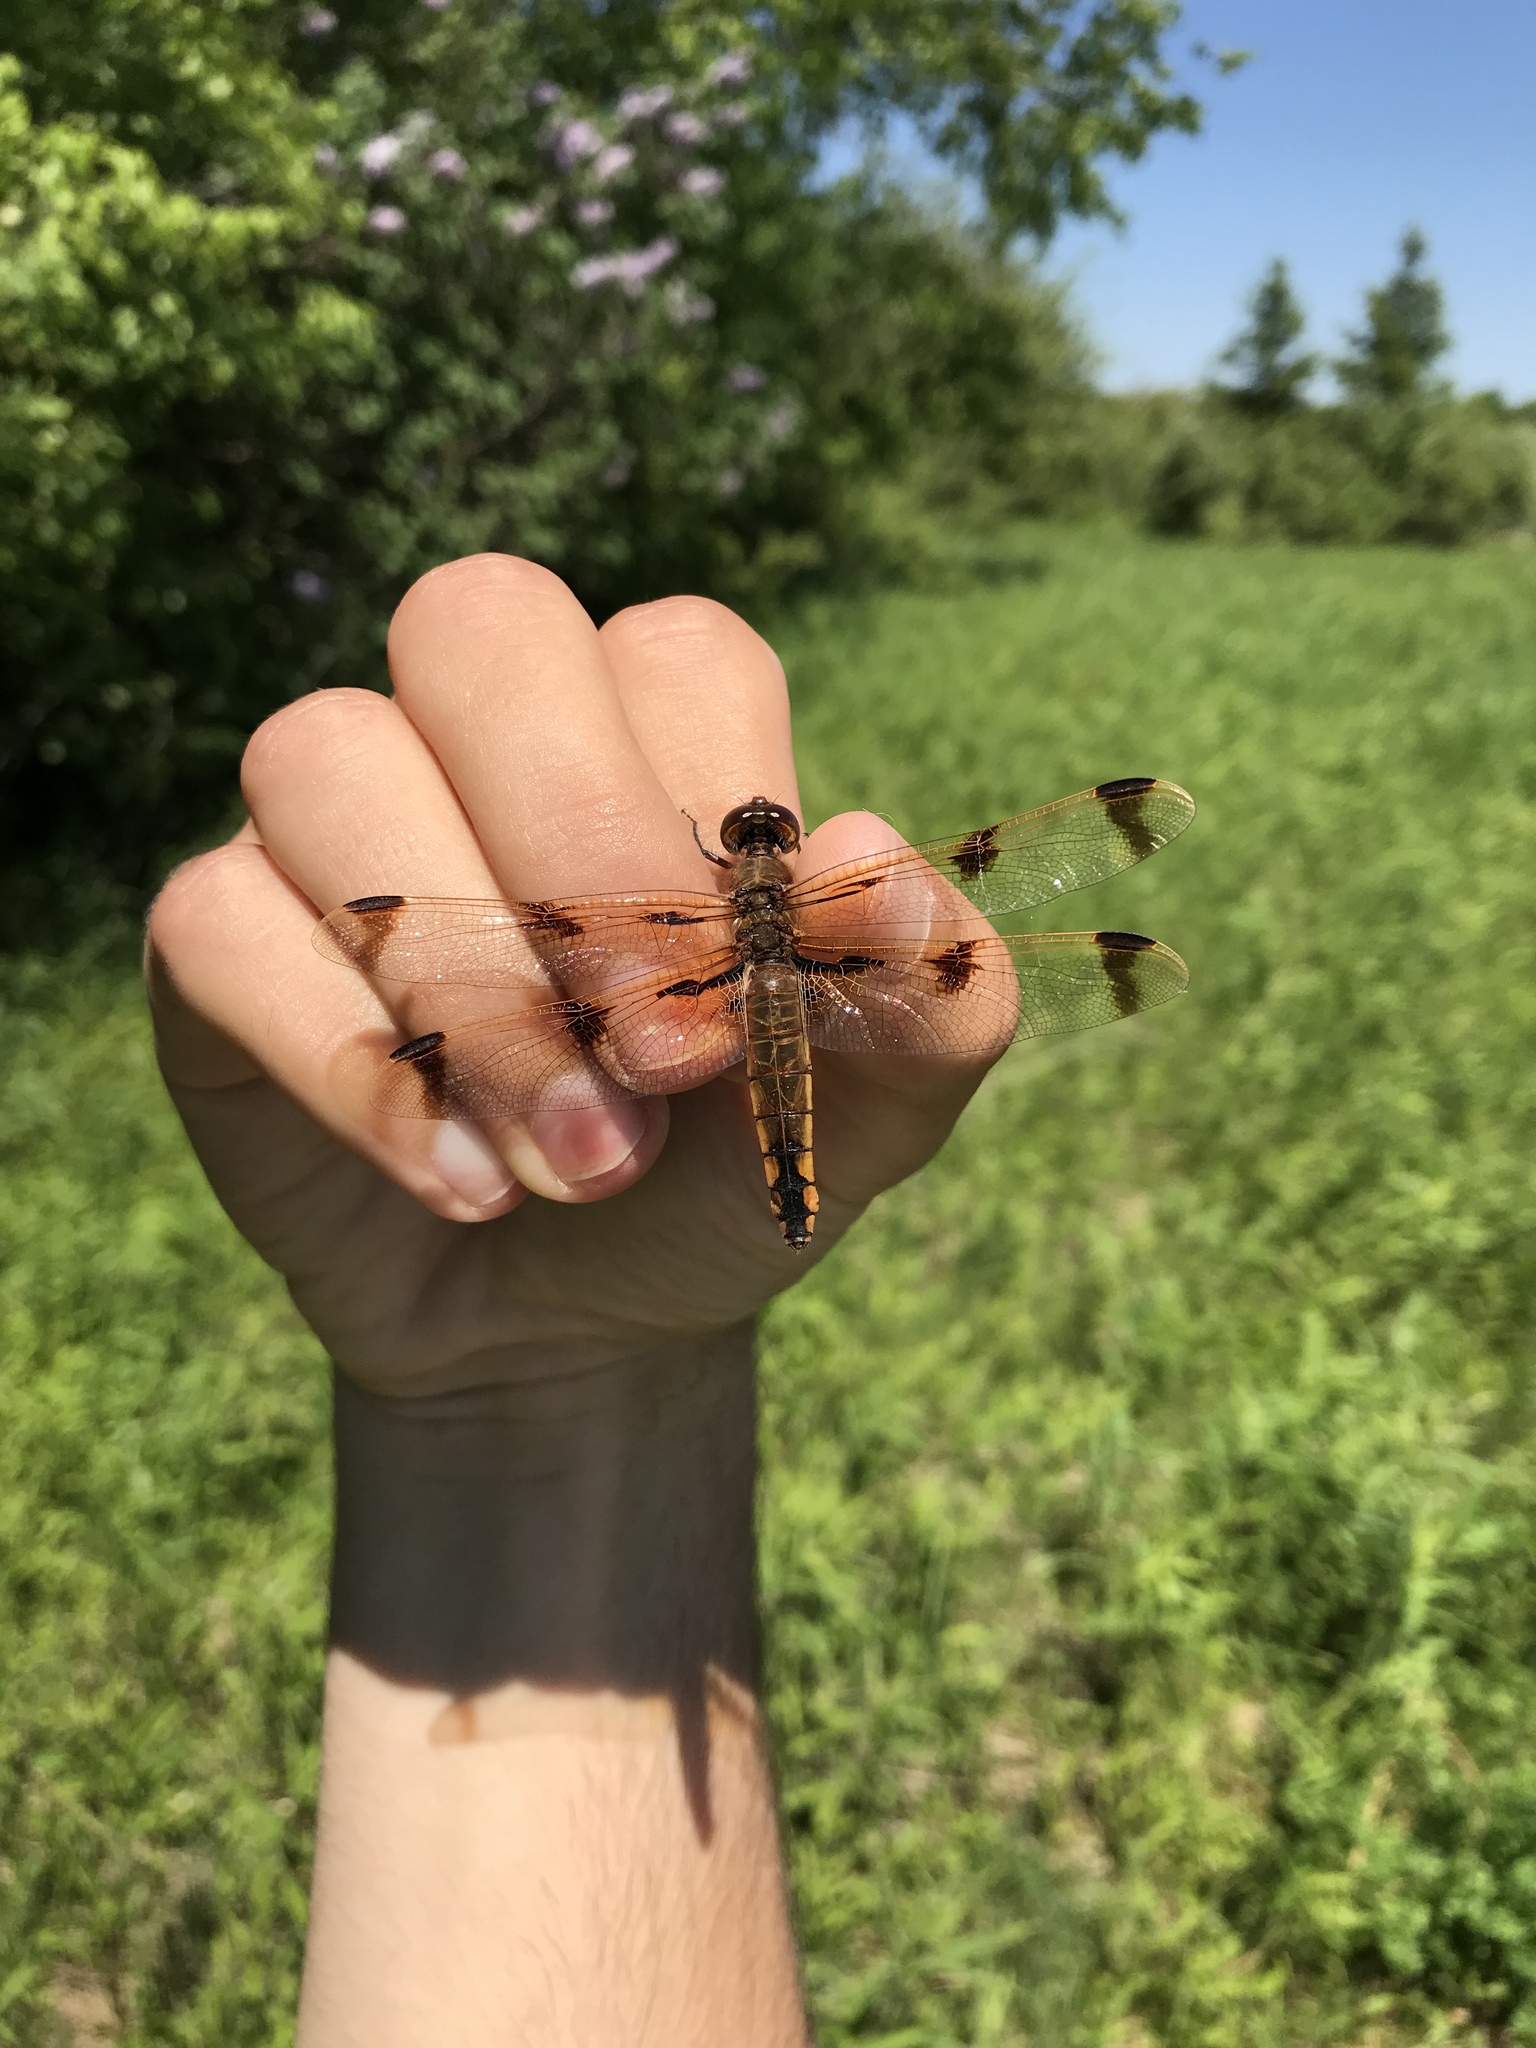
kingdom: Animalia
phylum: Arthropoda
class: Insecta
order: Odonata
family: Libellulidae
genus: Libellula
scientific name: Libellula semifasciata
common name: Painted skimmer
